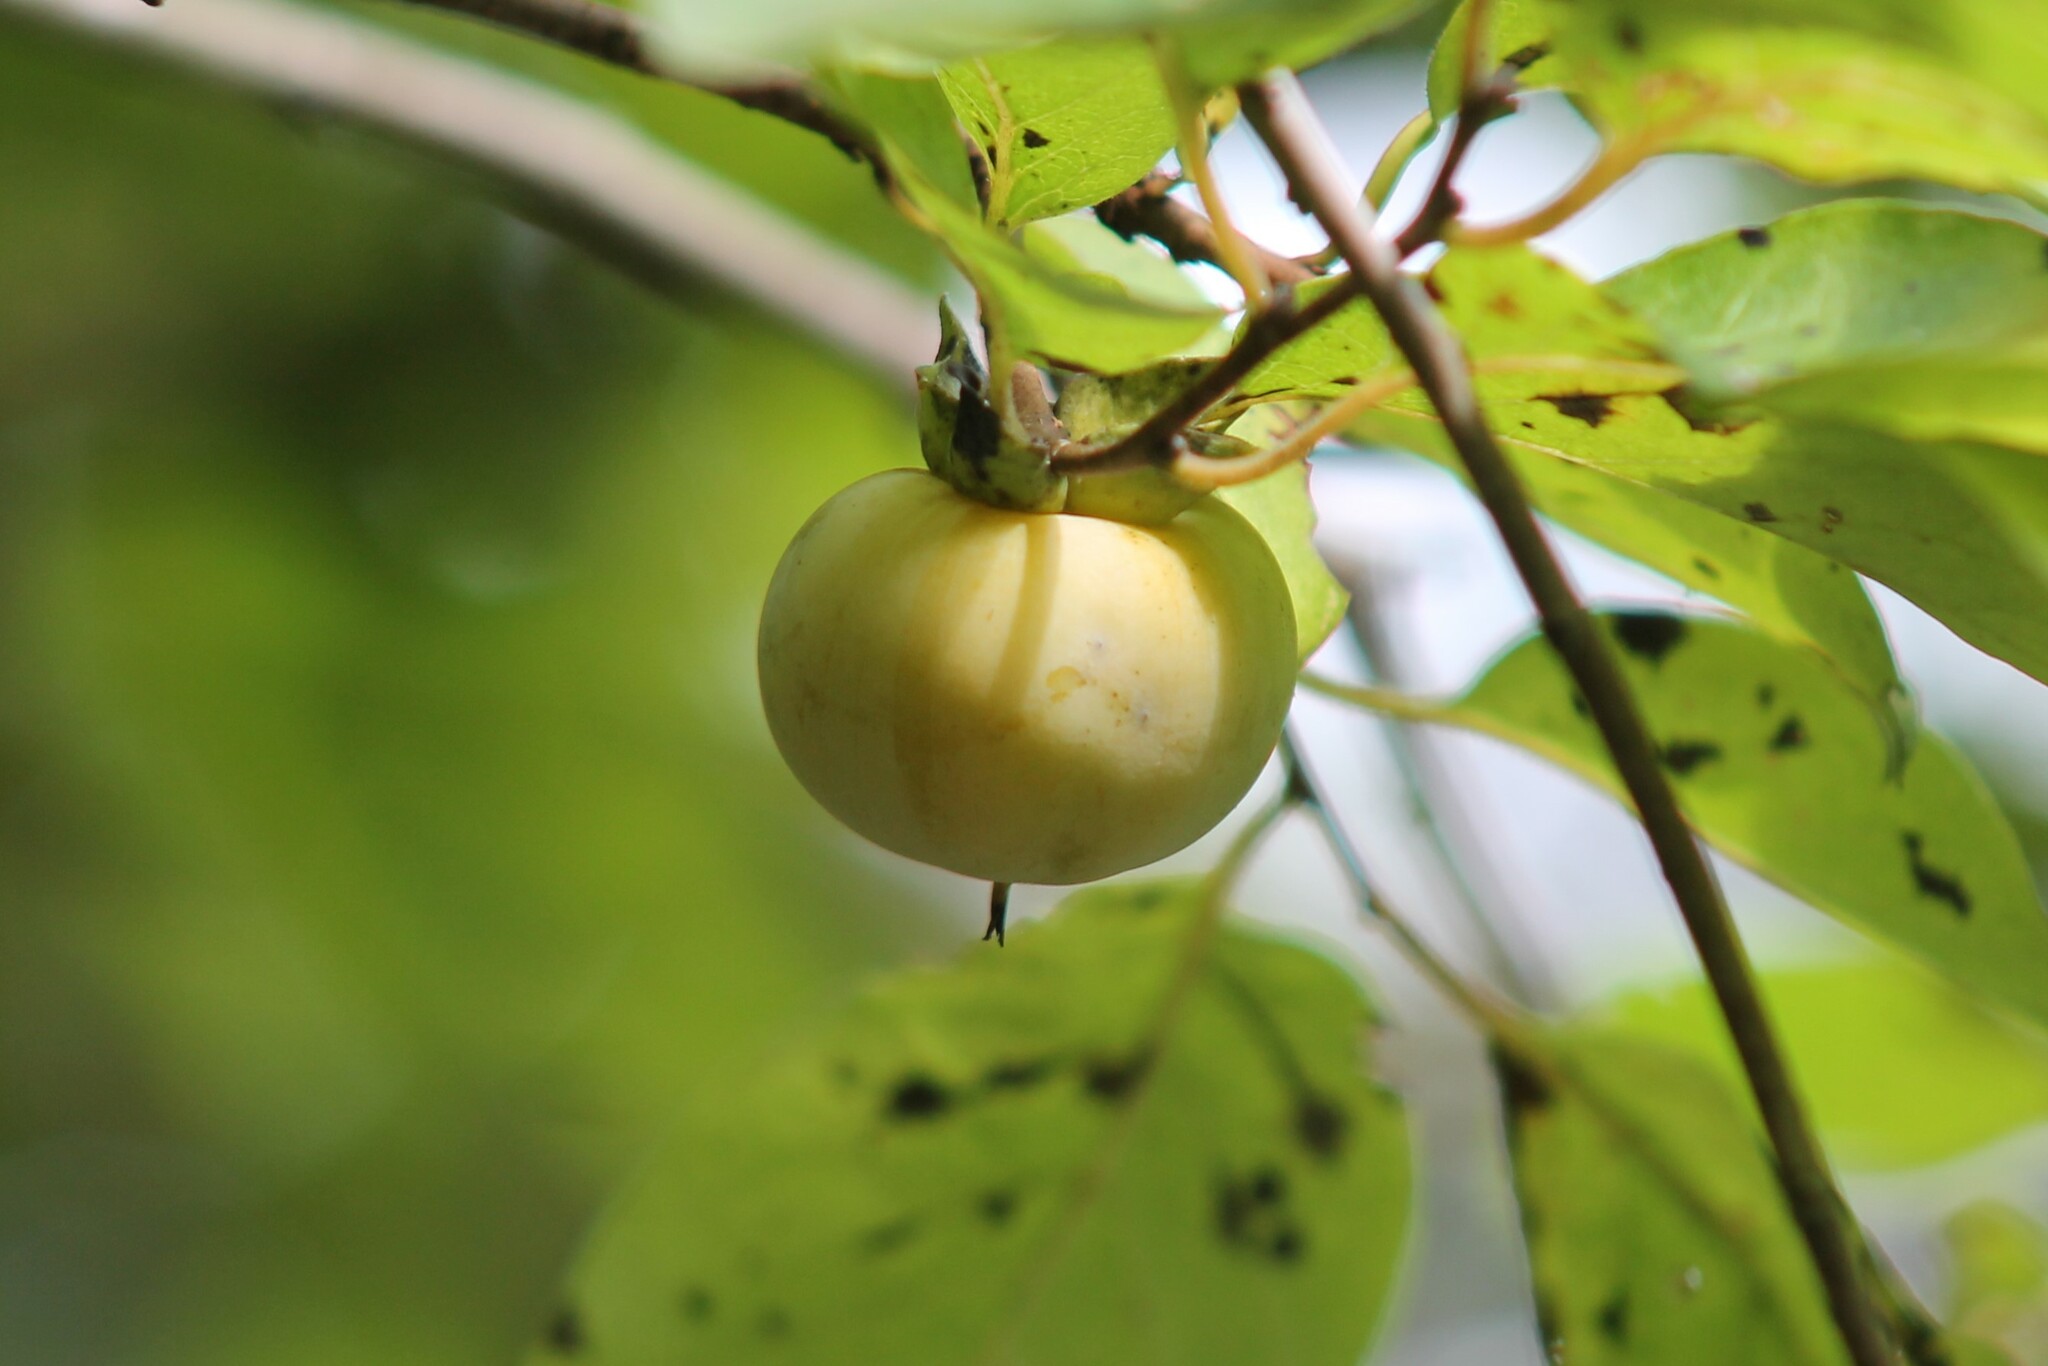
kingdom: Plantae
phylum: Tracheophyta
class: Magnoliopsida
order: Ericales
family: Ebenaceae
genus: Diospyros
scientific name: Diospyros virginiana
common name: Persimmon
